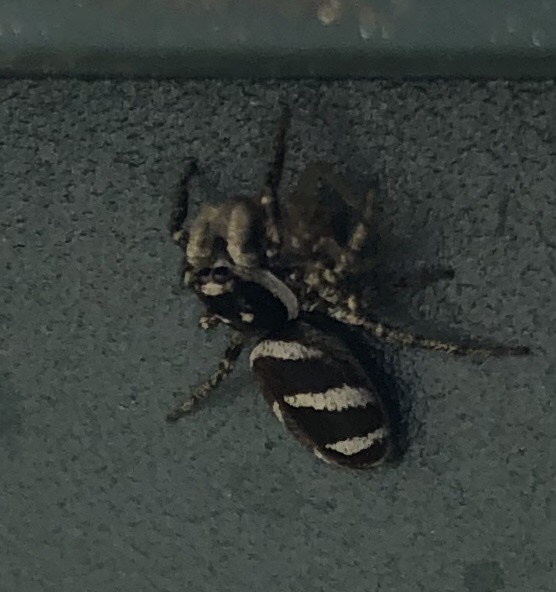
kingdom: Animalia
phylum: Arthropoda
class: Arachnida
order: Araneae
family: Salticidae
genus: Salticus
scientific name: Salticus scenicus
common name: Zebra jumper
